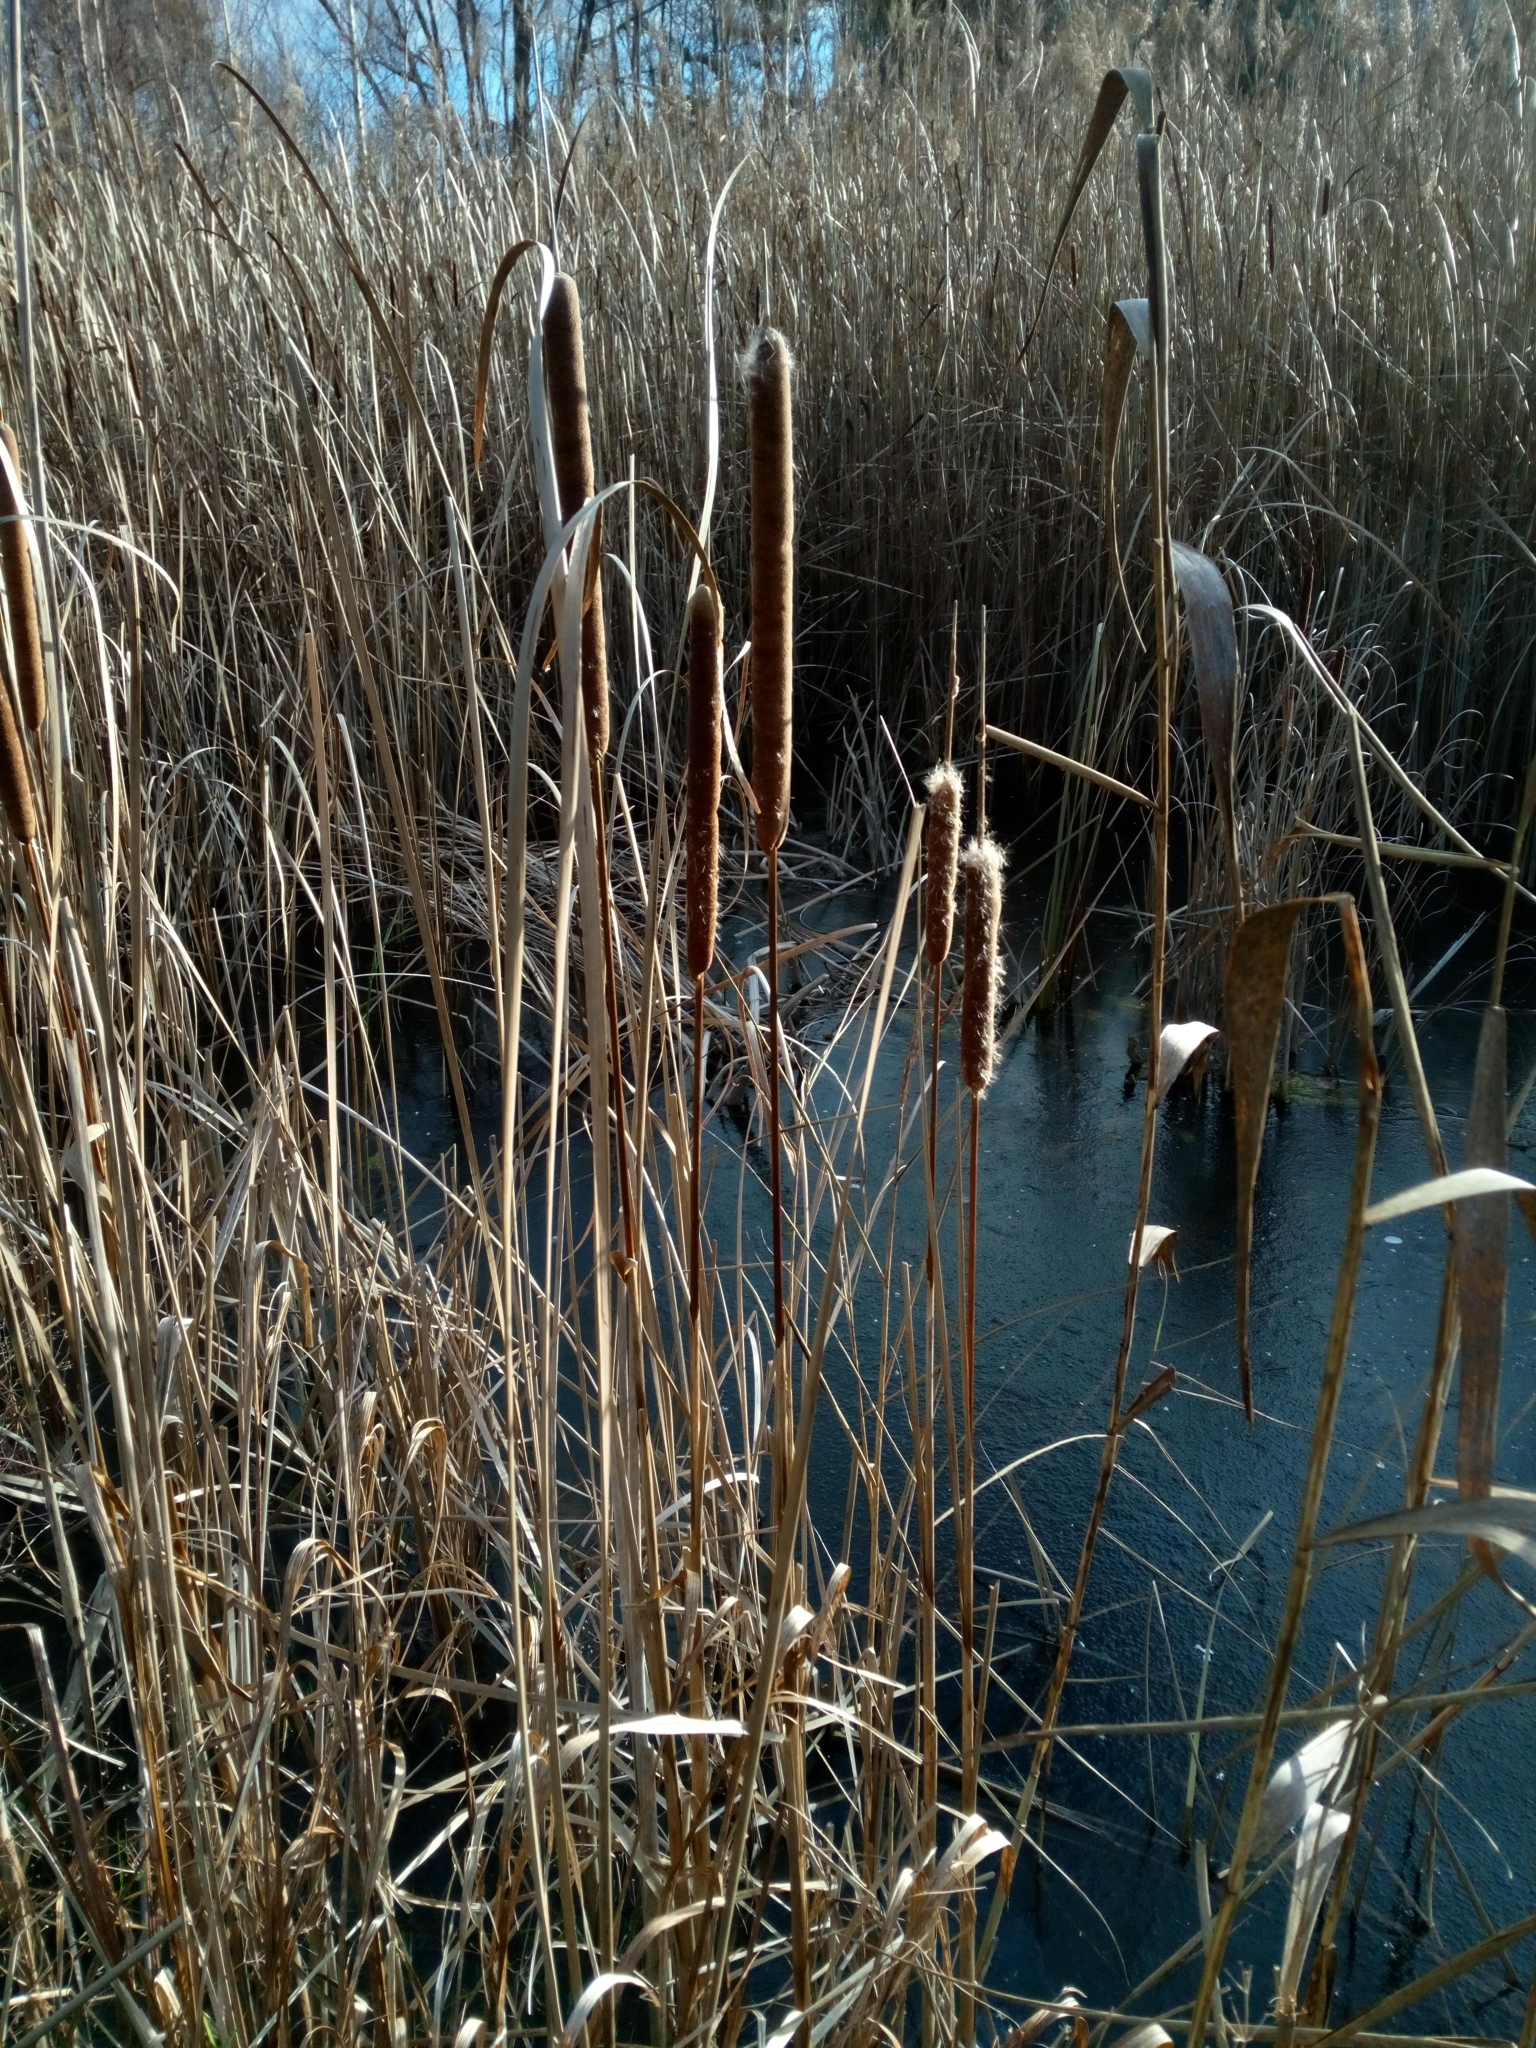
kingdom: Plantae
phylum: Tracheophyta
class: Liliopsida
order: Poales
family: Typhaceae
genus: Typha
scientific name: Typha angustifolia
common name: Lesser bulrush
